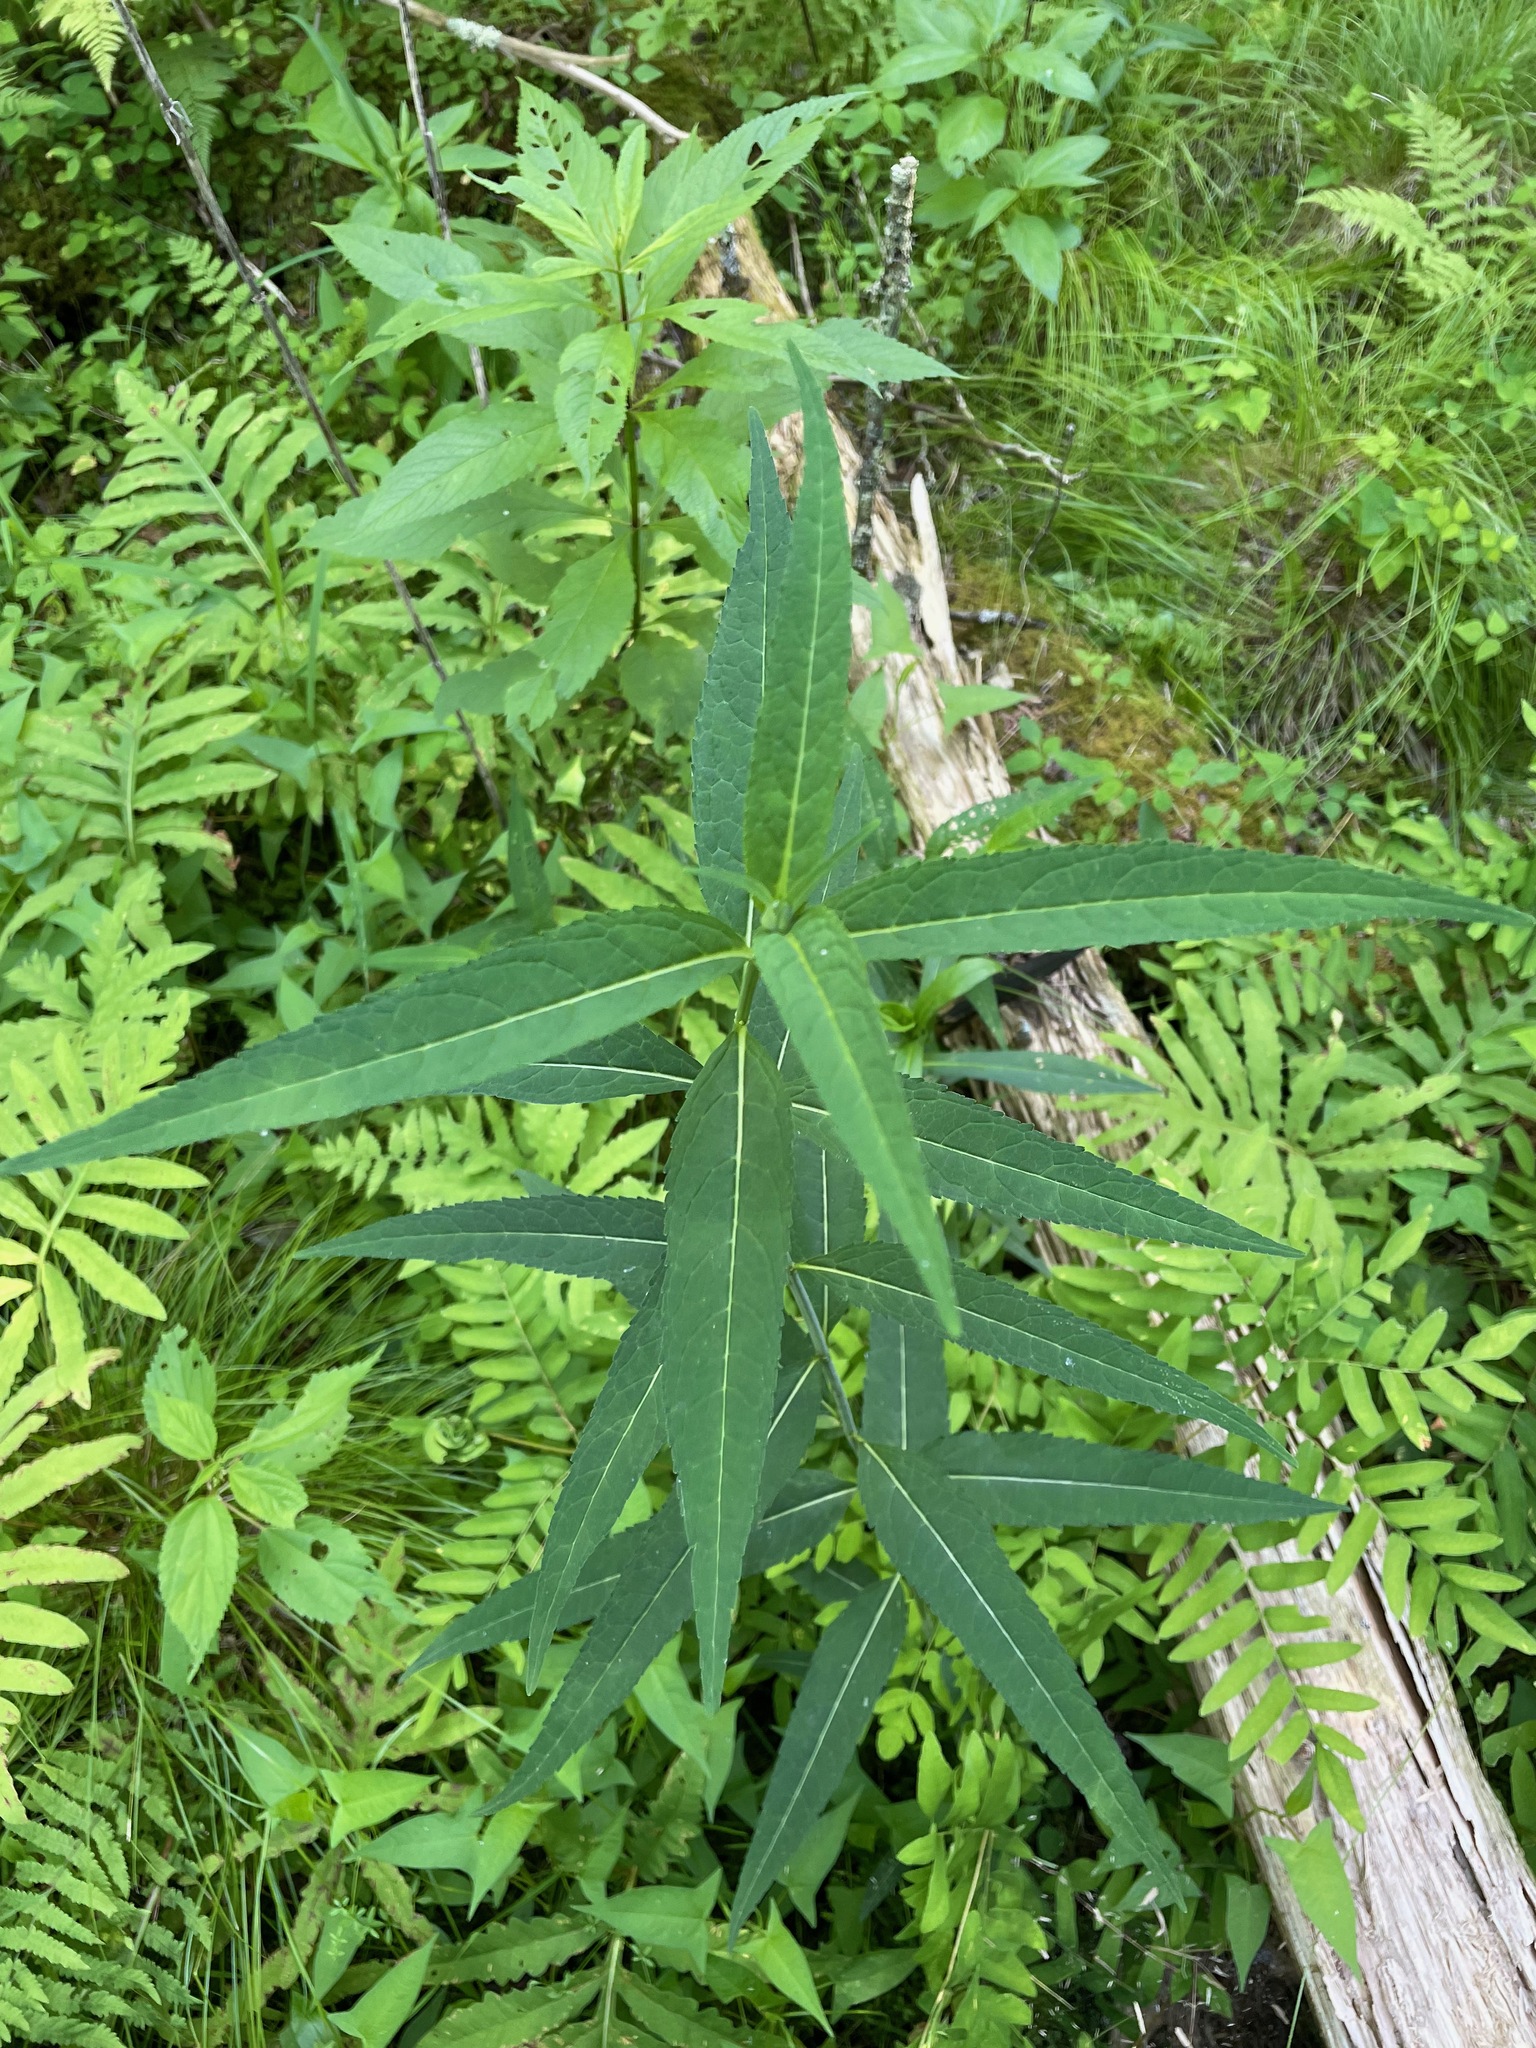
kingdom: Plantae
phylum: Tracheophyta
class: Magnoliopsida
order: Lamiales
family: Plantaginaceae
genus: Chelone
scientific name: Chelone glabra
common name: Snakehead
